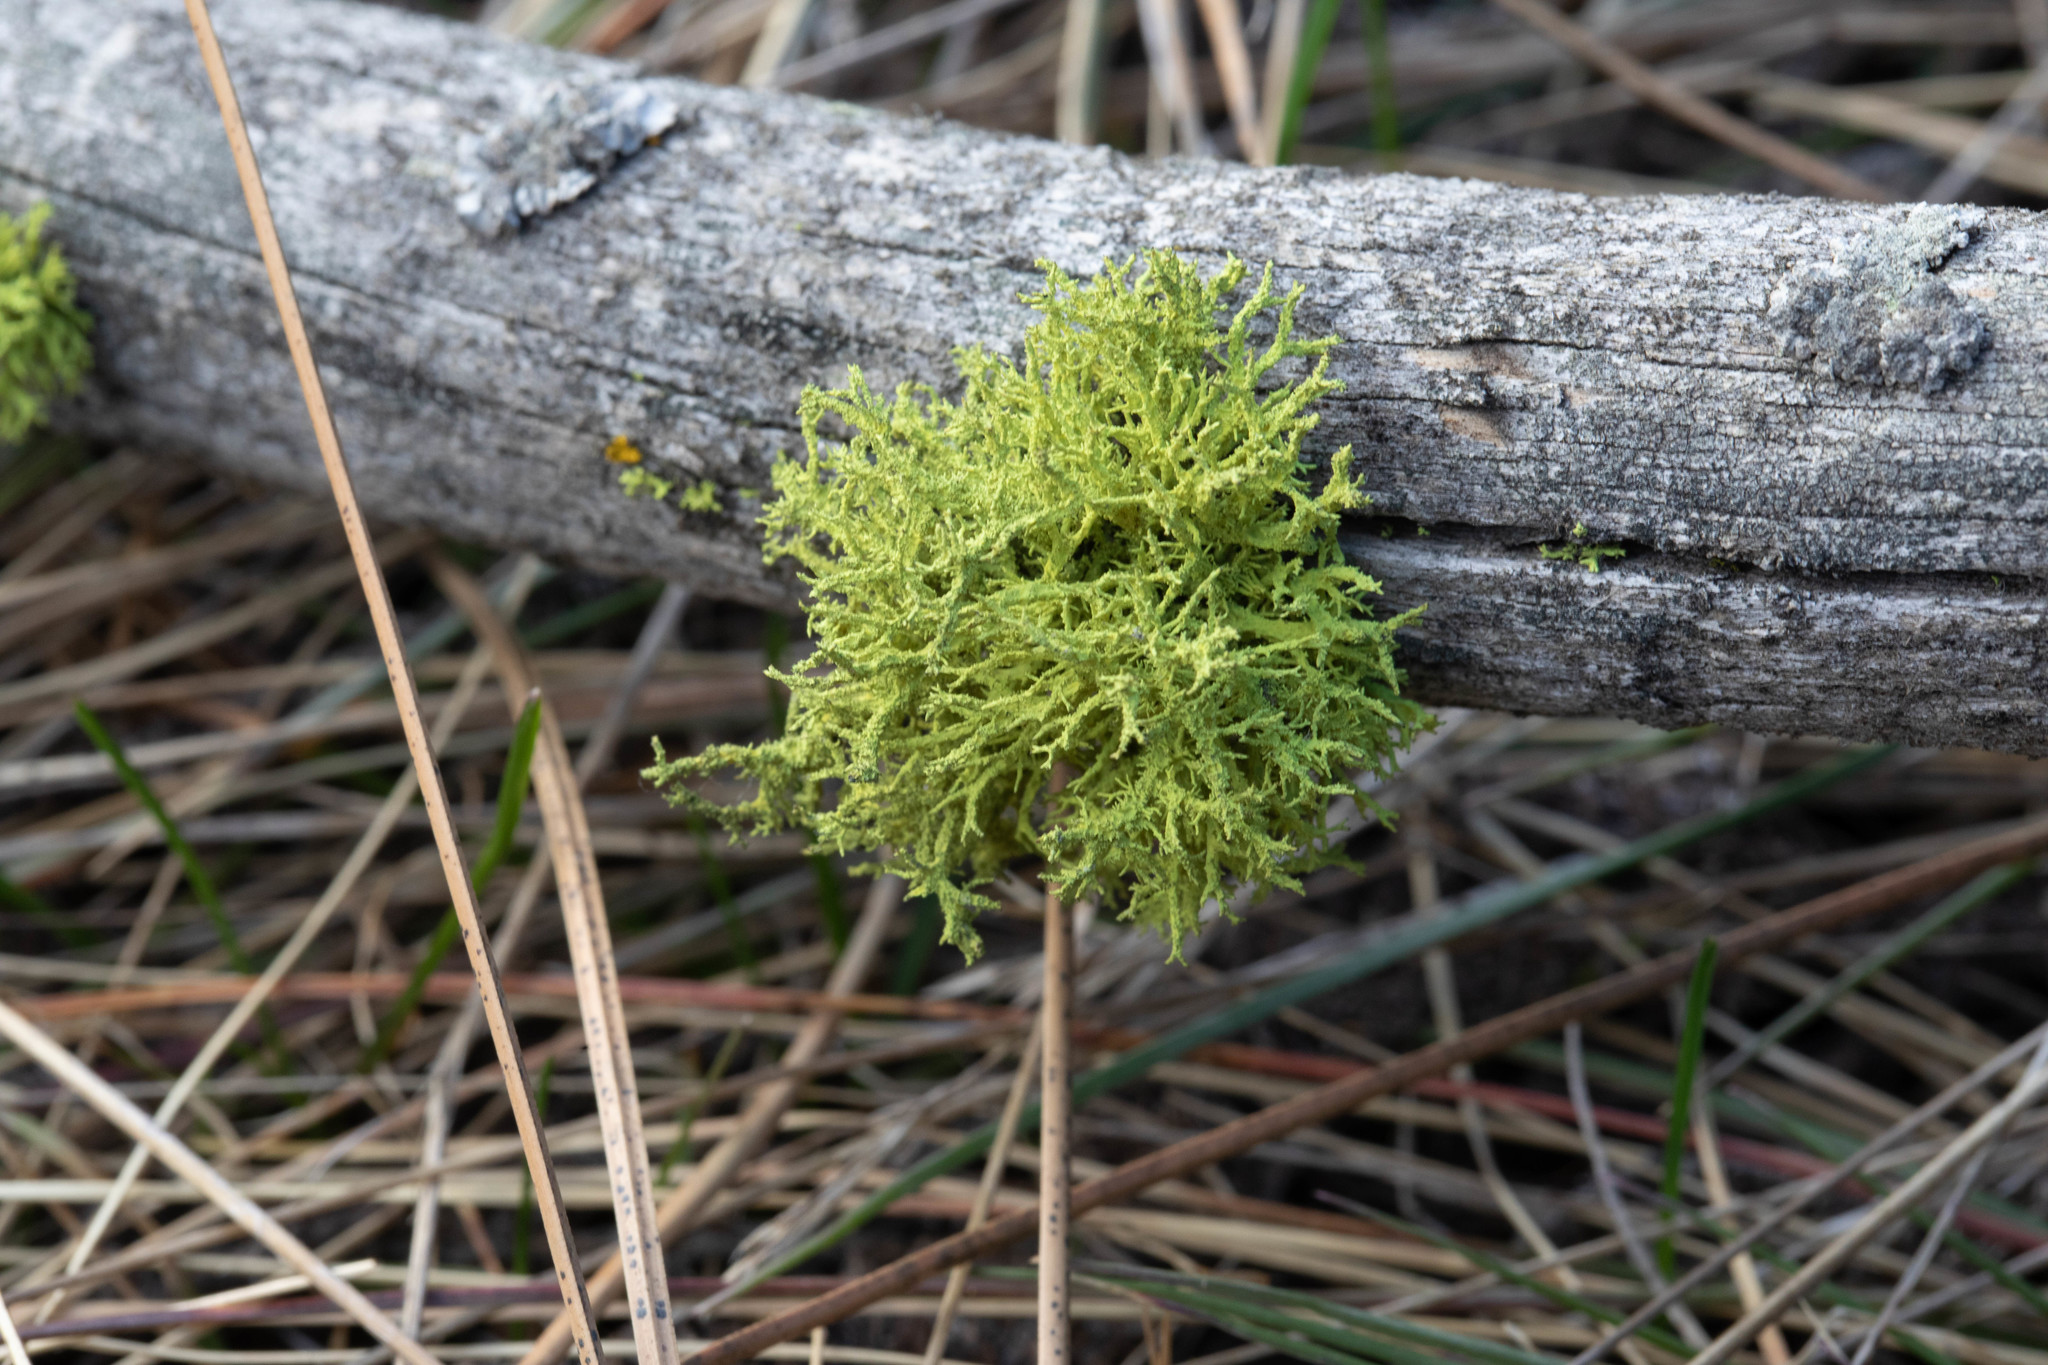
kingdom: Fungi
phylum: Ascomycota
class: Lecanoromycetes
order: Lecanorales
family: Parmeliaceae
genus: Letharia
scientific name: Letharia vulpina
